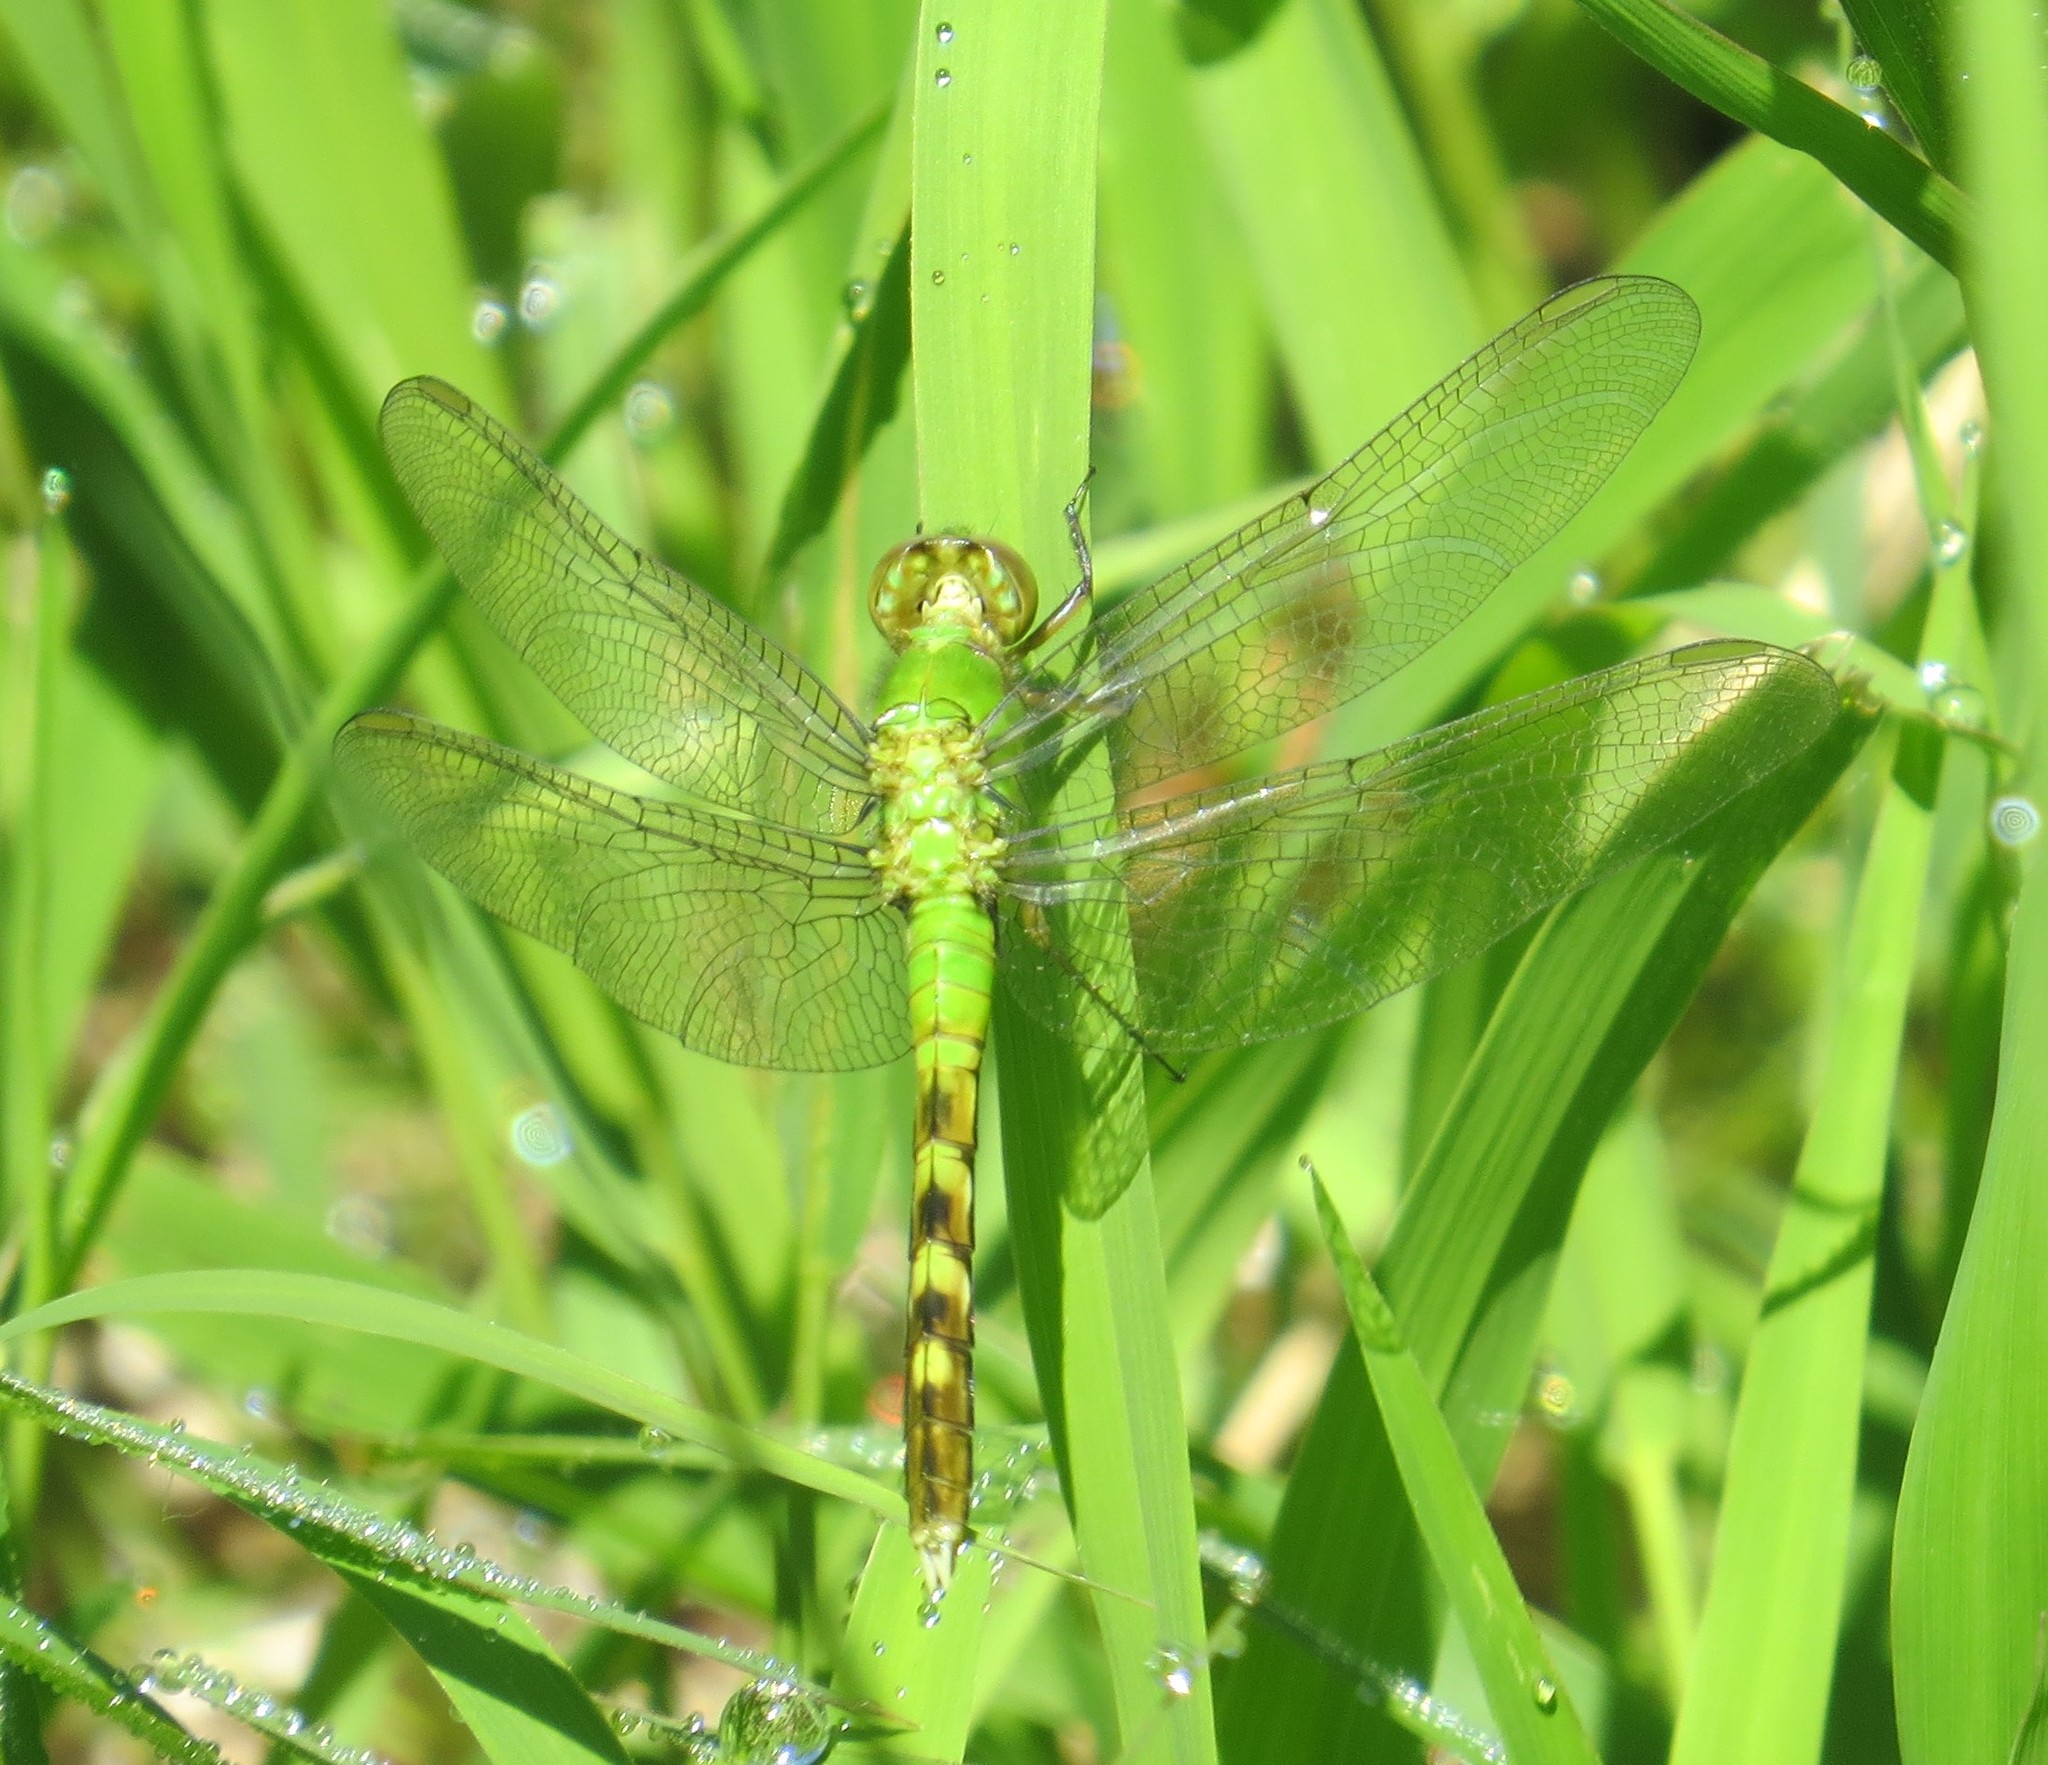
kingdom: Animalia
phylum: Arthropoda
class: Insecta
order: Odonata
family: Libellulidae
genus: Erythemis
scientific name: Erythemis simplicicollis
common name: Eastern pondhawk
